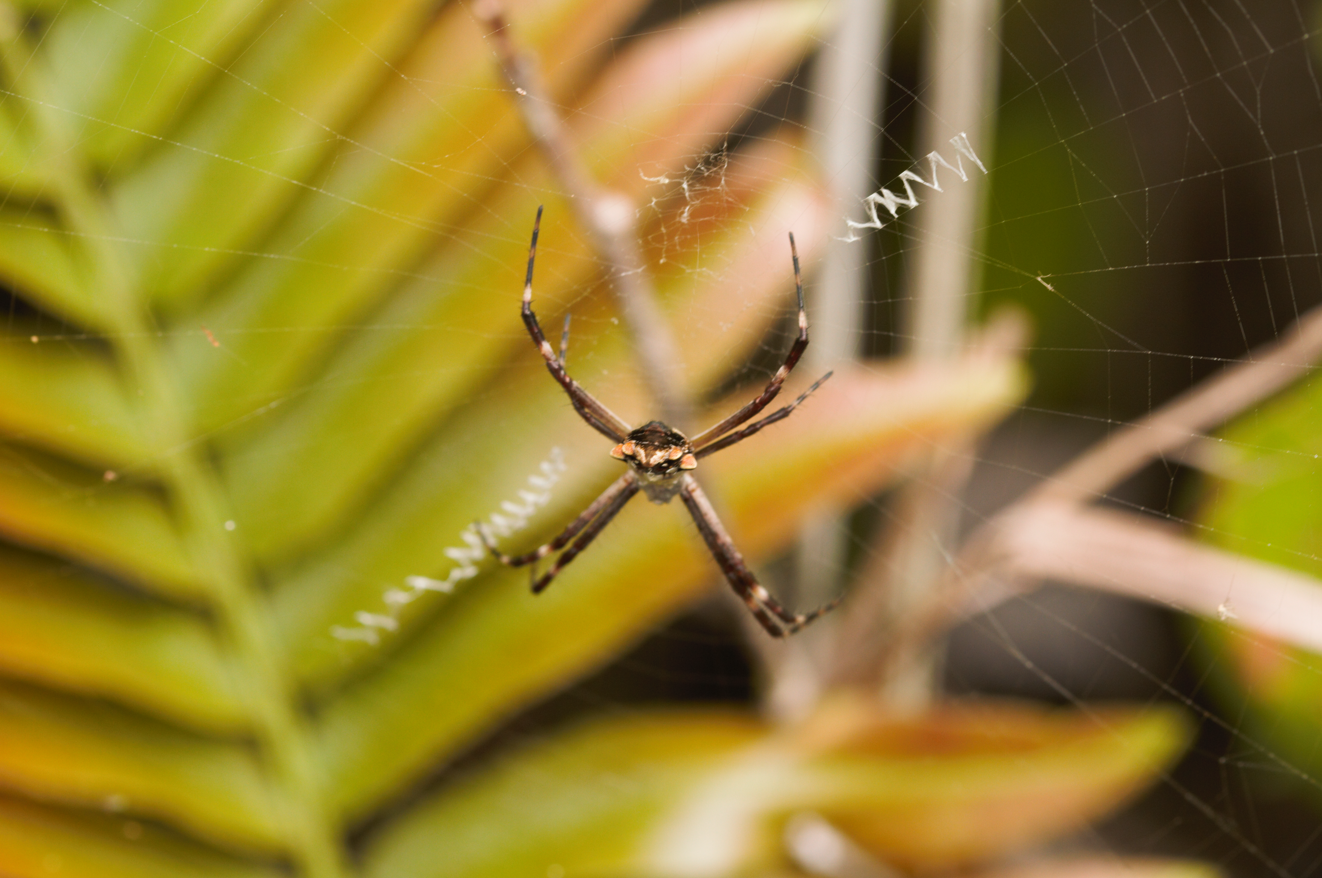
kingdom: Animalia
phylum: Arthropoda
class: Arachnida
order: Araneae
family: Araneidae
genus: Argiope
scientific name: Argiope argentata
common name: Orb weavers
